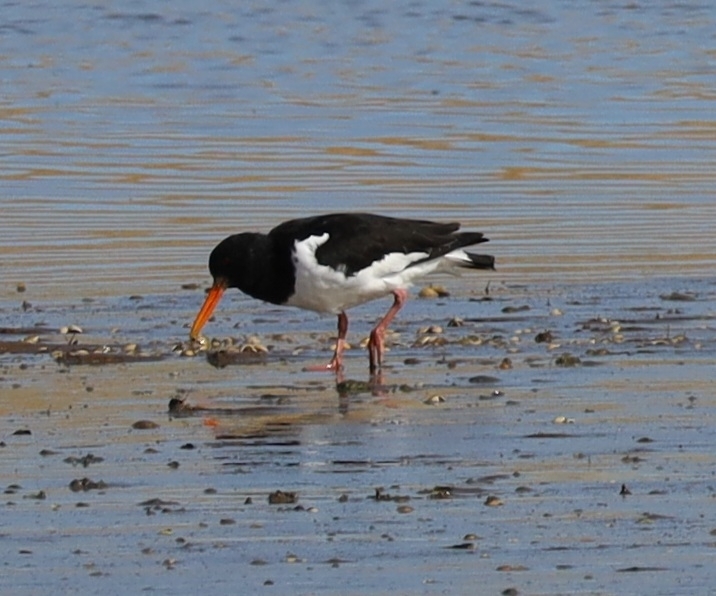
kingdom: Animalia
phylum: Chordata
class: Aves
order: Charadriiformes
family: Haematopodidae
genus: Haematopus
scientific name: Haematopus ostralegus
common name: Eurasian oystercatcher
